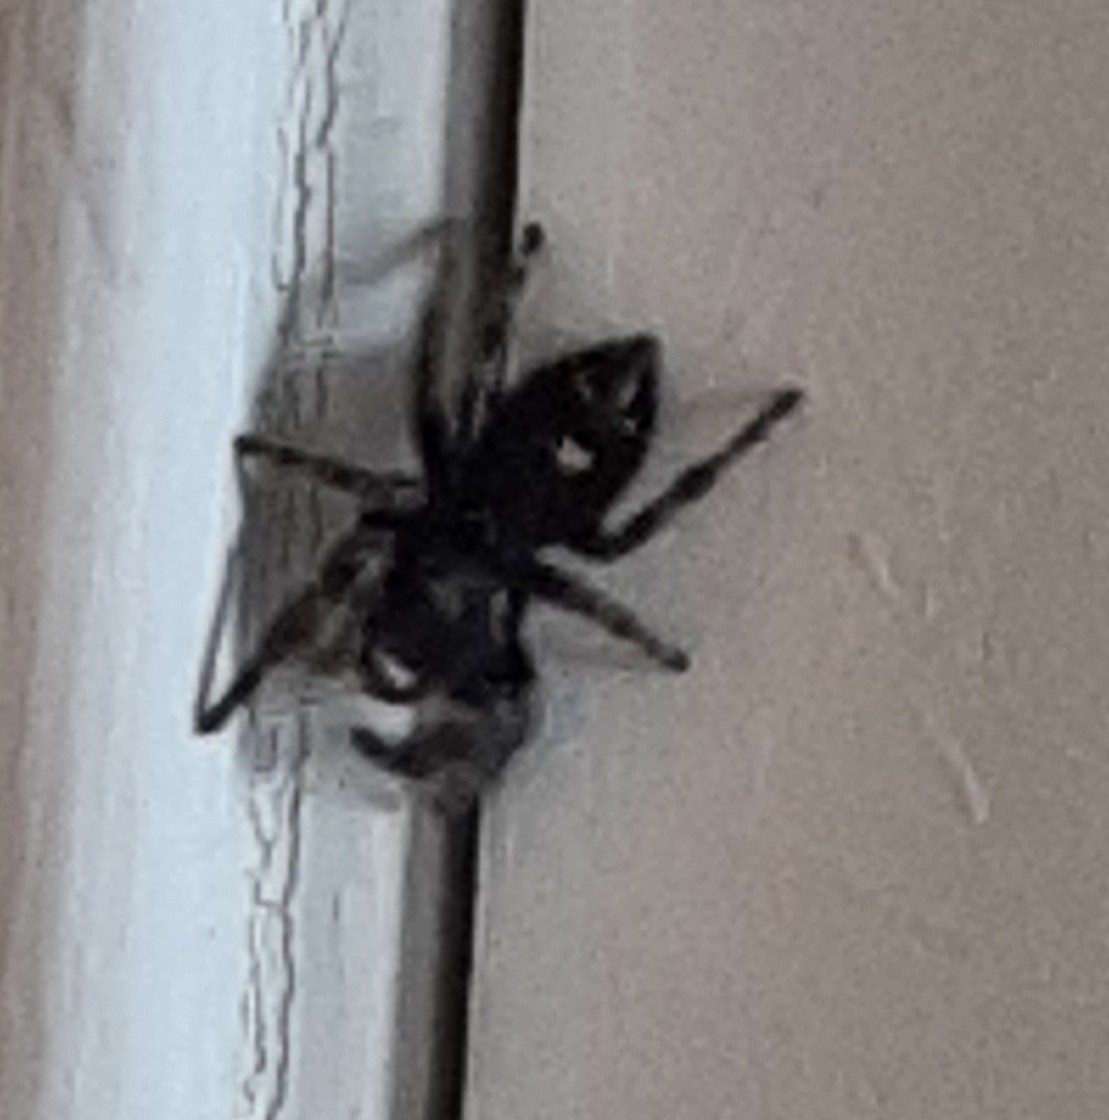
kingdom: Animalia
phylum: Arthropoda
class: Arachnida
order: Araneae
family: Salticidae
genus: Phidippus
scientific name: Phidippus audax
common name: Bold jumper
